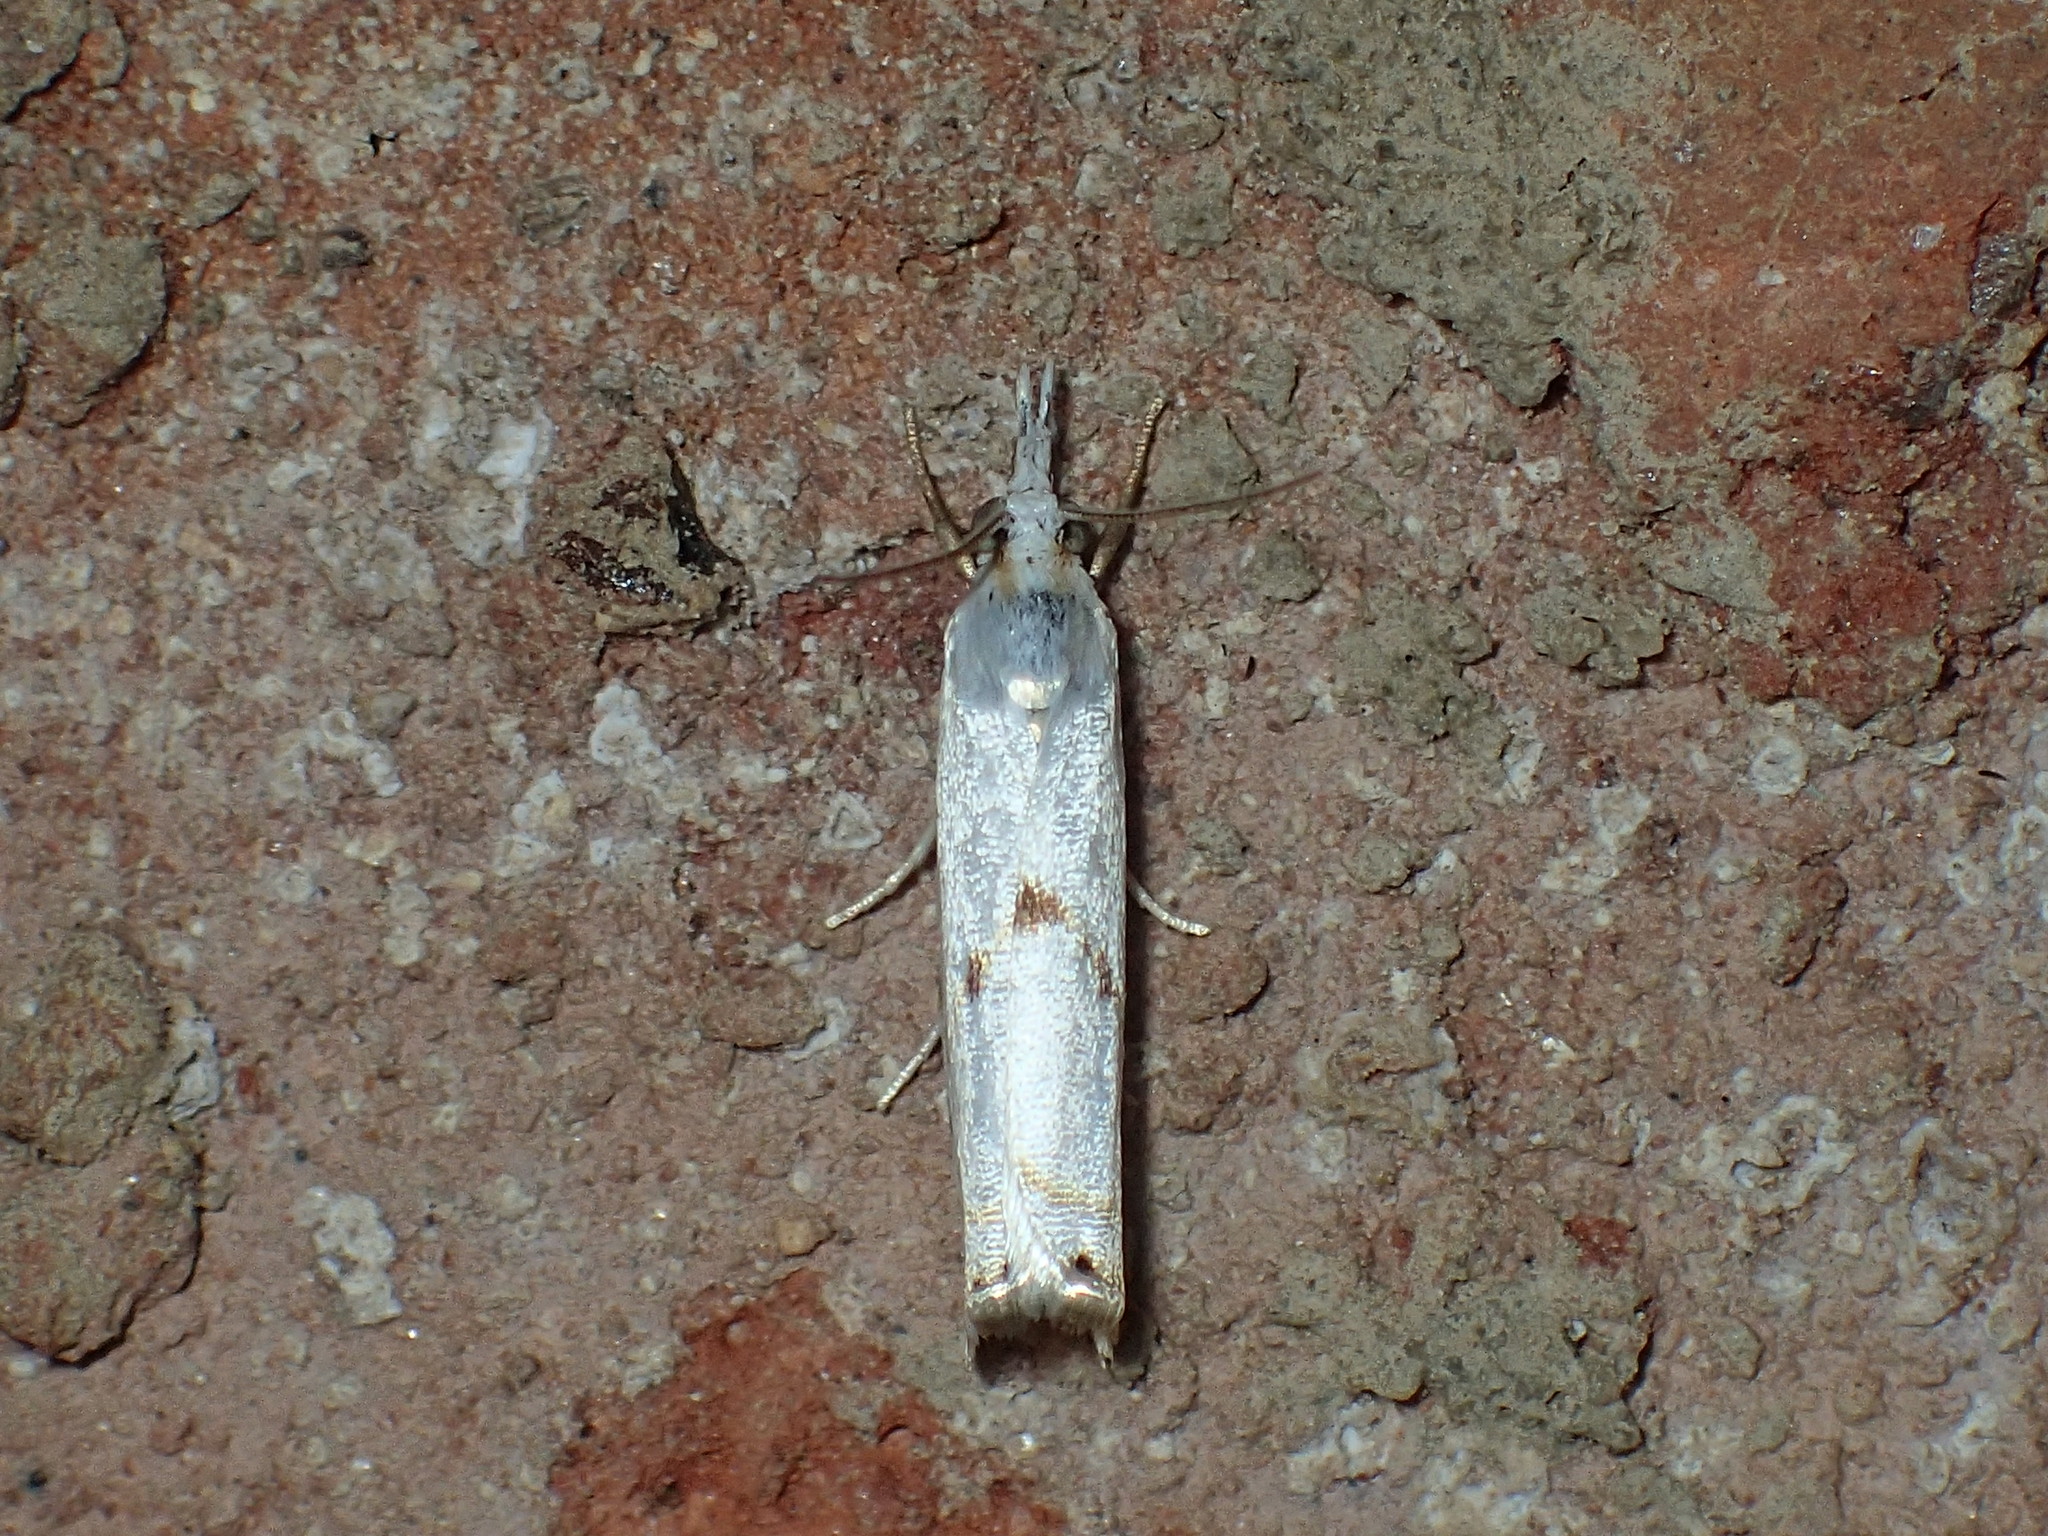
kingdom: Animalia
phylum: Arthropoda
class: Insecta
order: Lepidoptera
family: Crambidae
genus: Microcrambus
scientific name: Microcrambus biguttellus
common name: Gold-stripe grass-veneer moth
